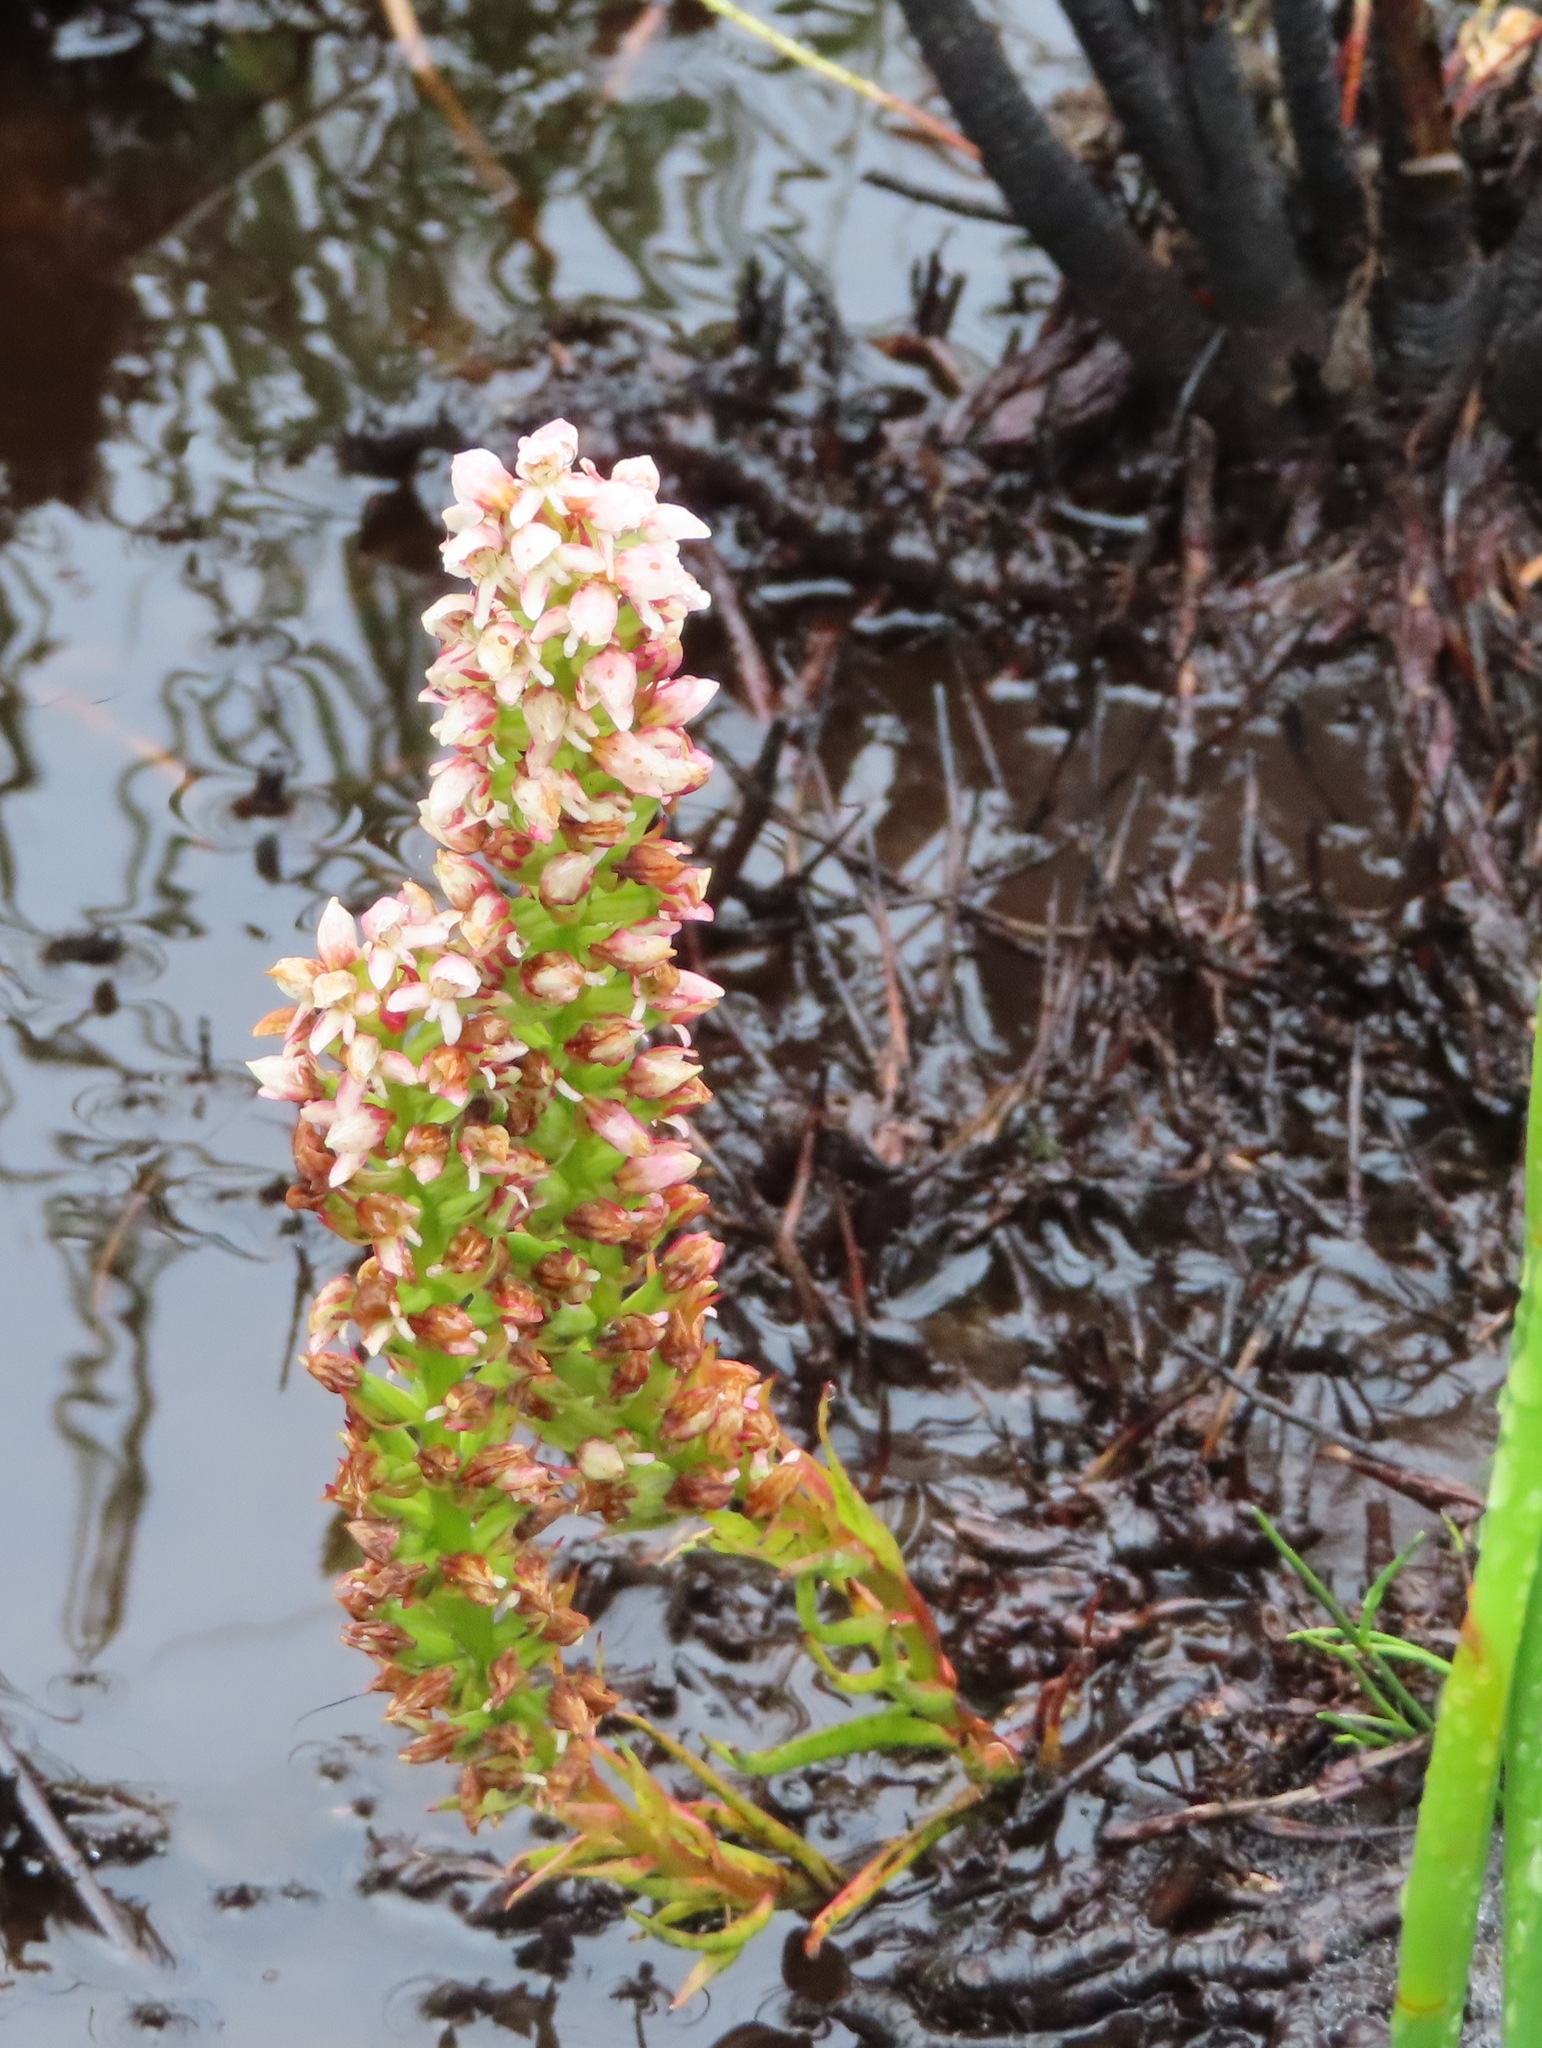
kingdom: Plantae
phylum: Tracheophyta
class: Liliopsida
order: Asparagales
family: Orchidaceae
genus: Disa
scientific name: Disa obtusa
